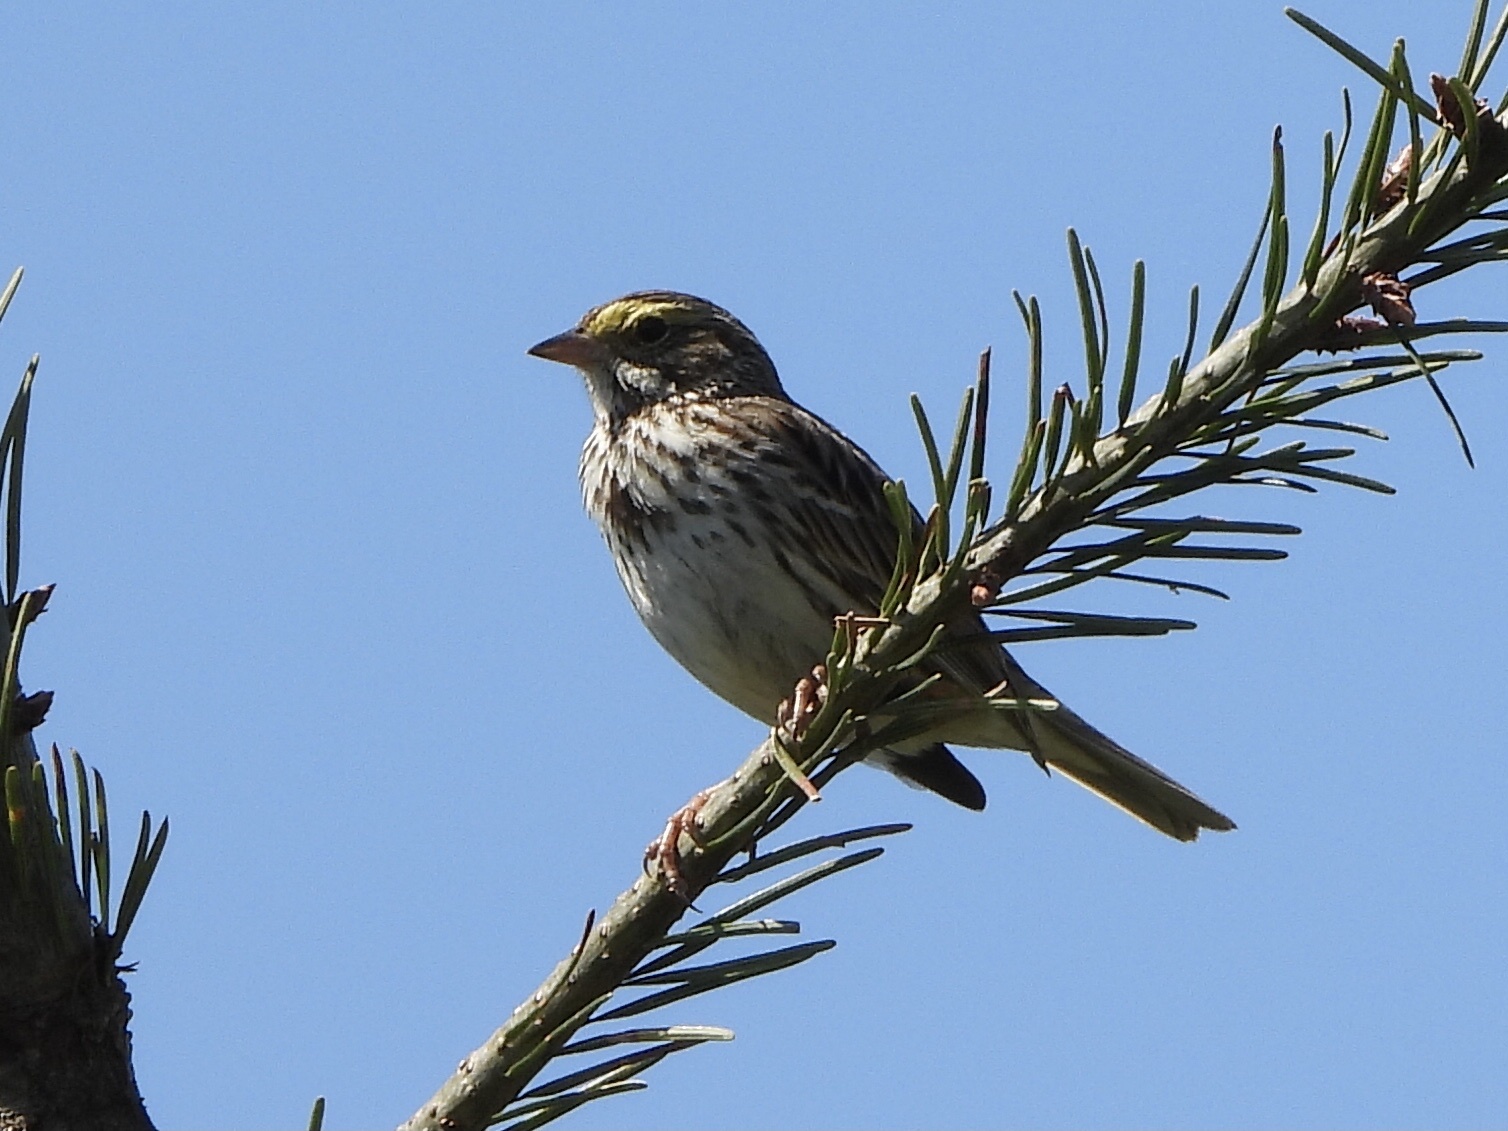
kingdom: Animalia
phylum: Chordata
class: Aves
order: Passeriformes
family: Passerellidae
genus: Passerculus
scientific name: Passerculus sandwichensis
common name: Savannah sparrow
